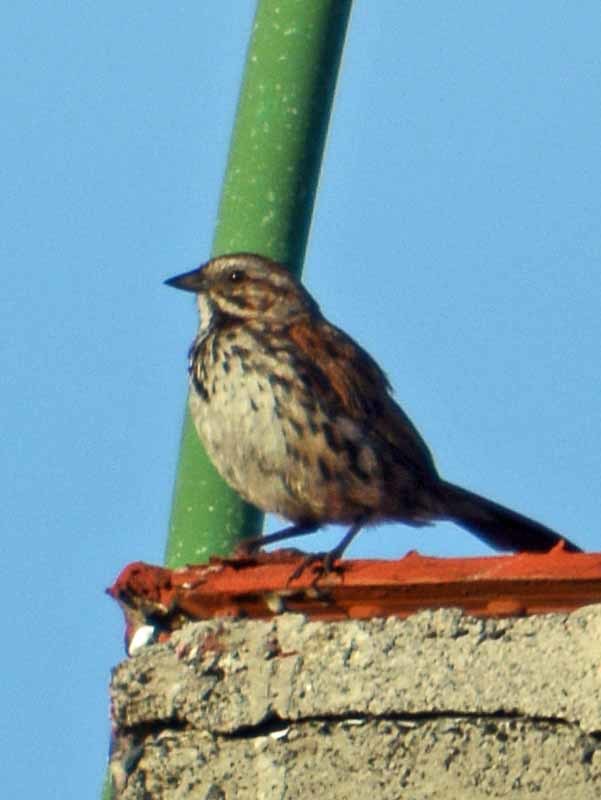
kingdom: Animalia
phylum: Chordata
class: Aves
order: Passeriformes
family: Passerellidae
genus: Melospiza
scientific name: Melospiza melodia
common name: Song sparrow
